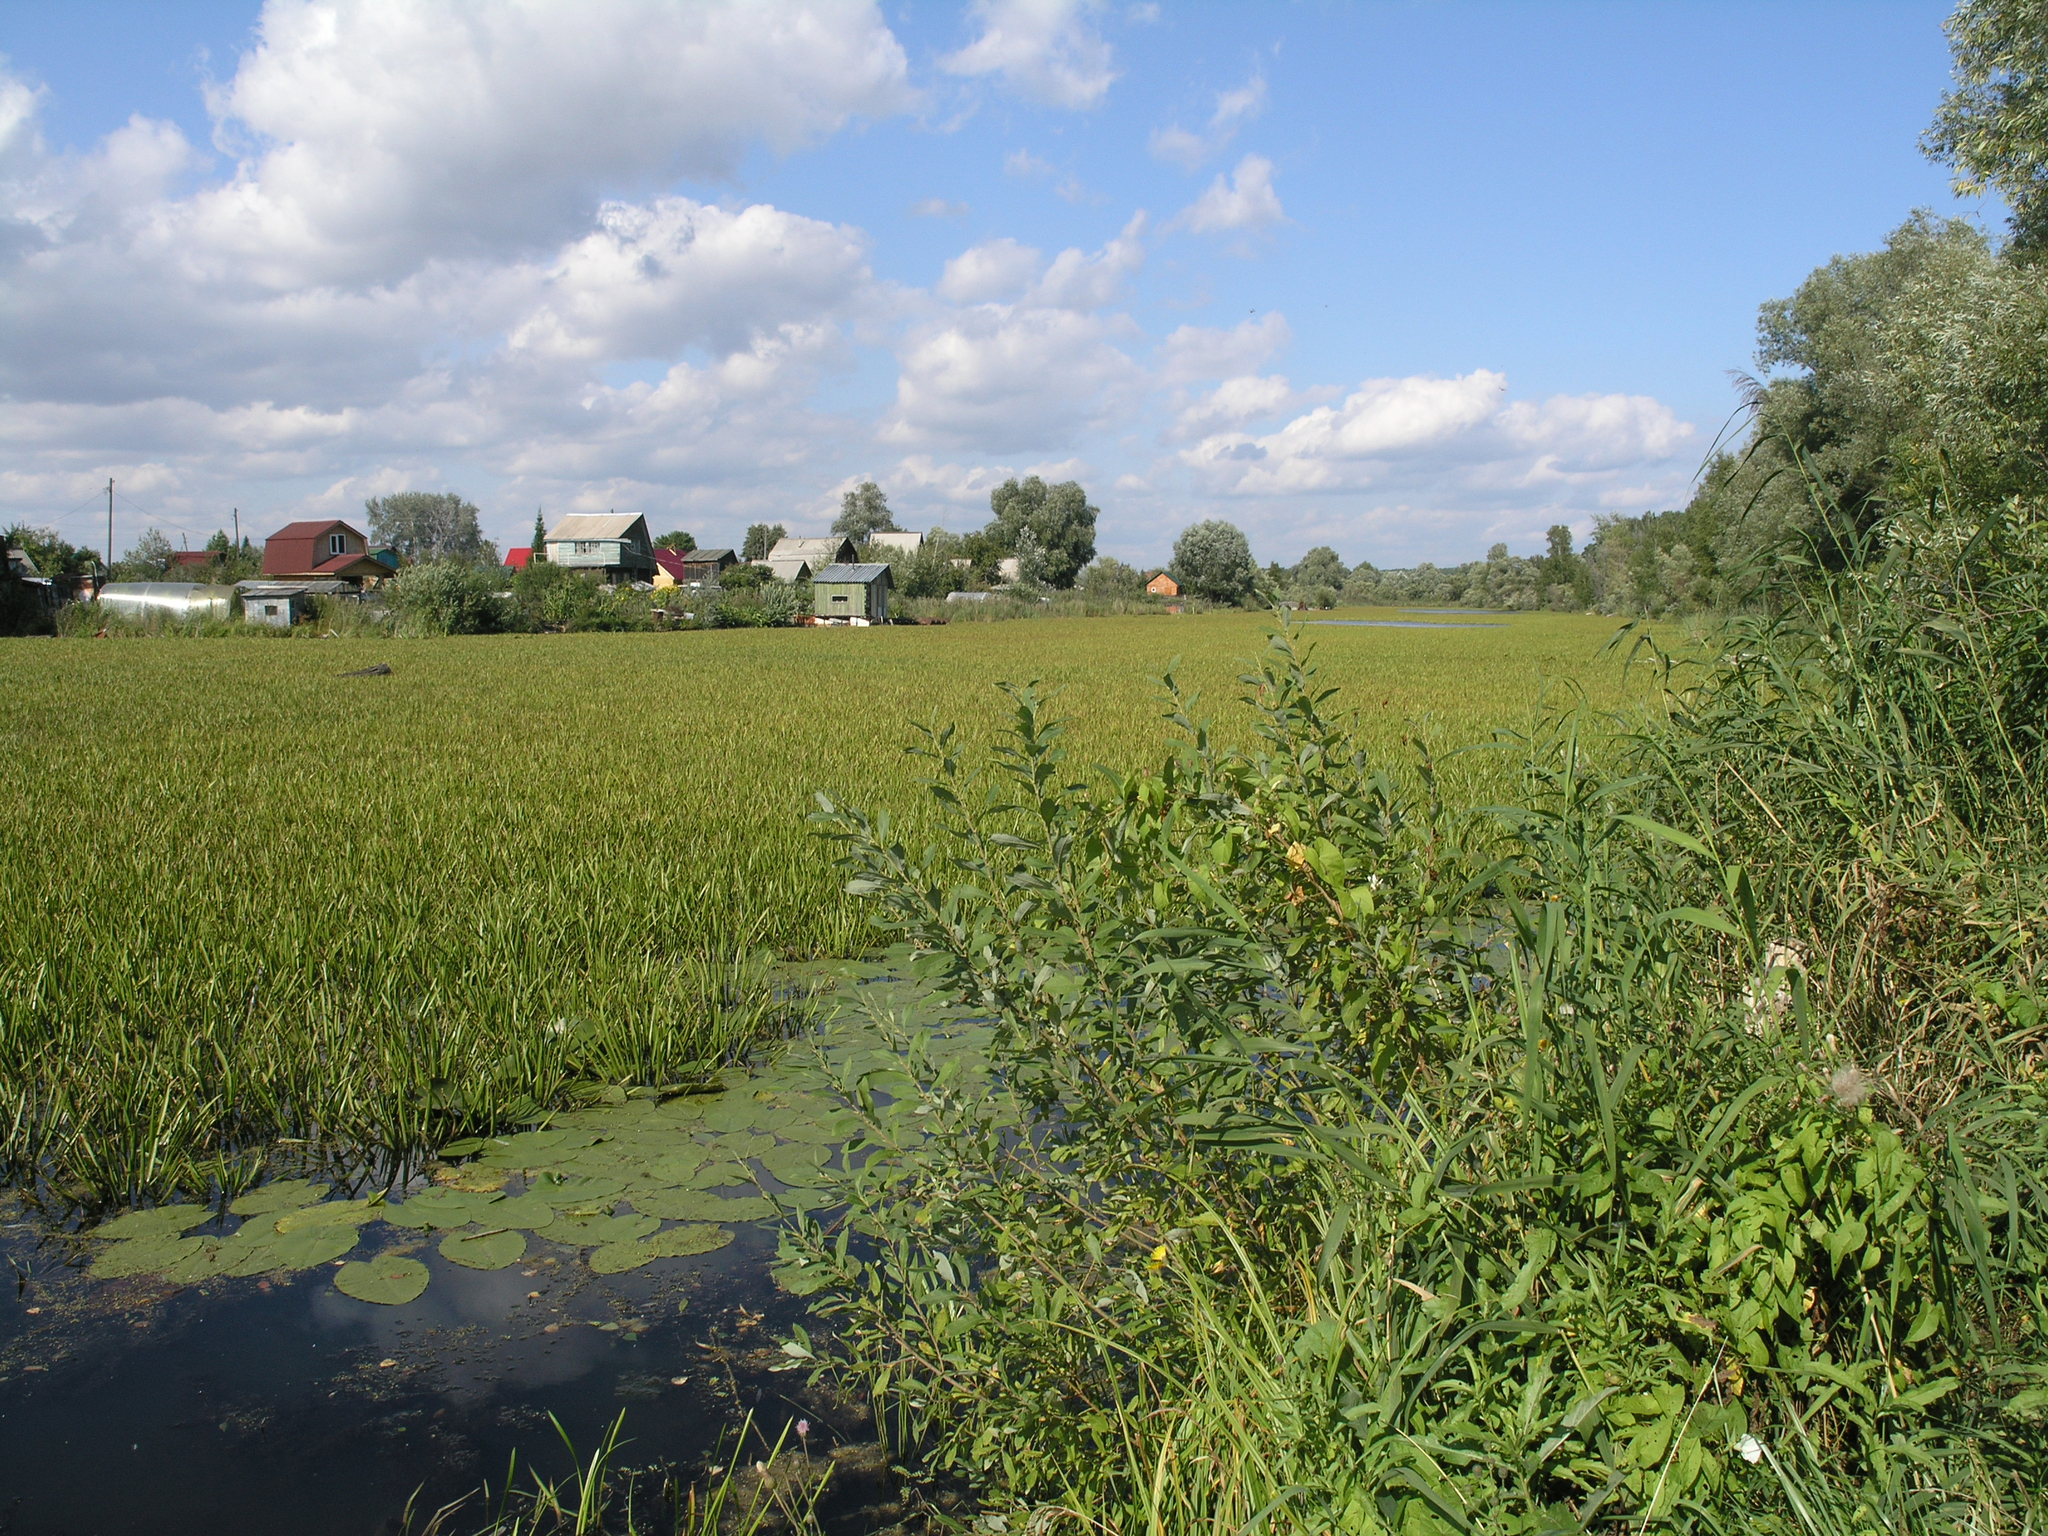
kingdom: Plantae
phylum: Tracheophyta
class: Liliopsida
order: Alismatales
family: Hydrocharitaceae
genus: Stratiotes
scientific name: Stratiotes aloides
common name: Water-soldier
